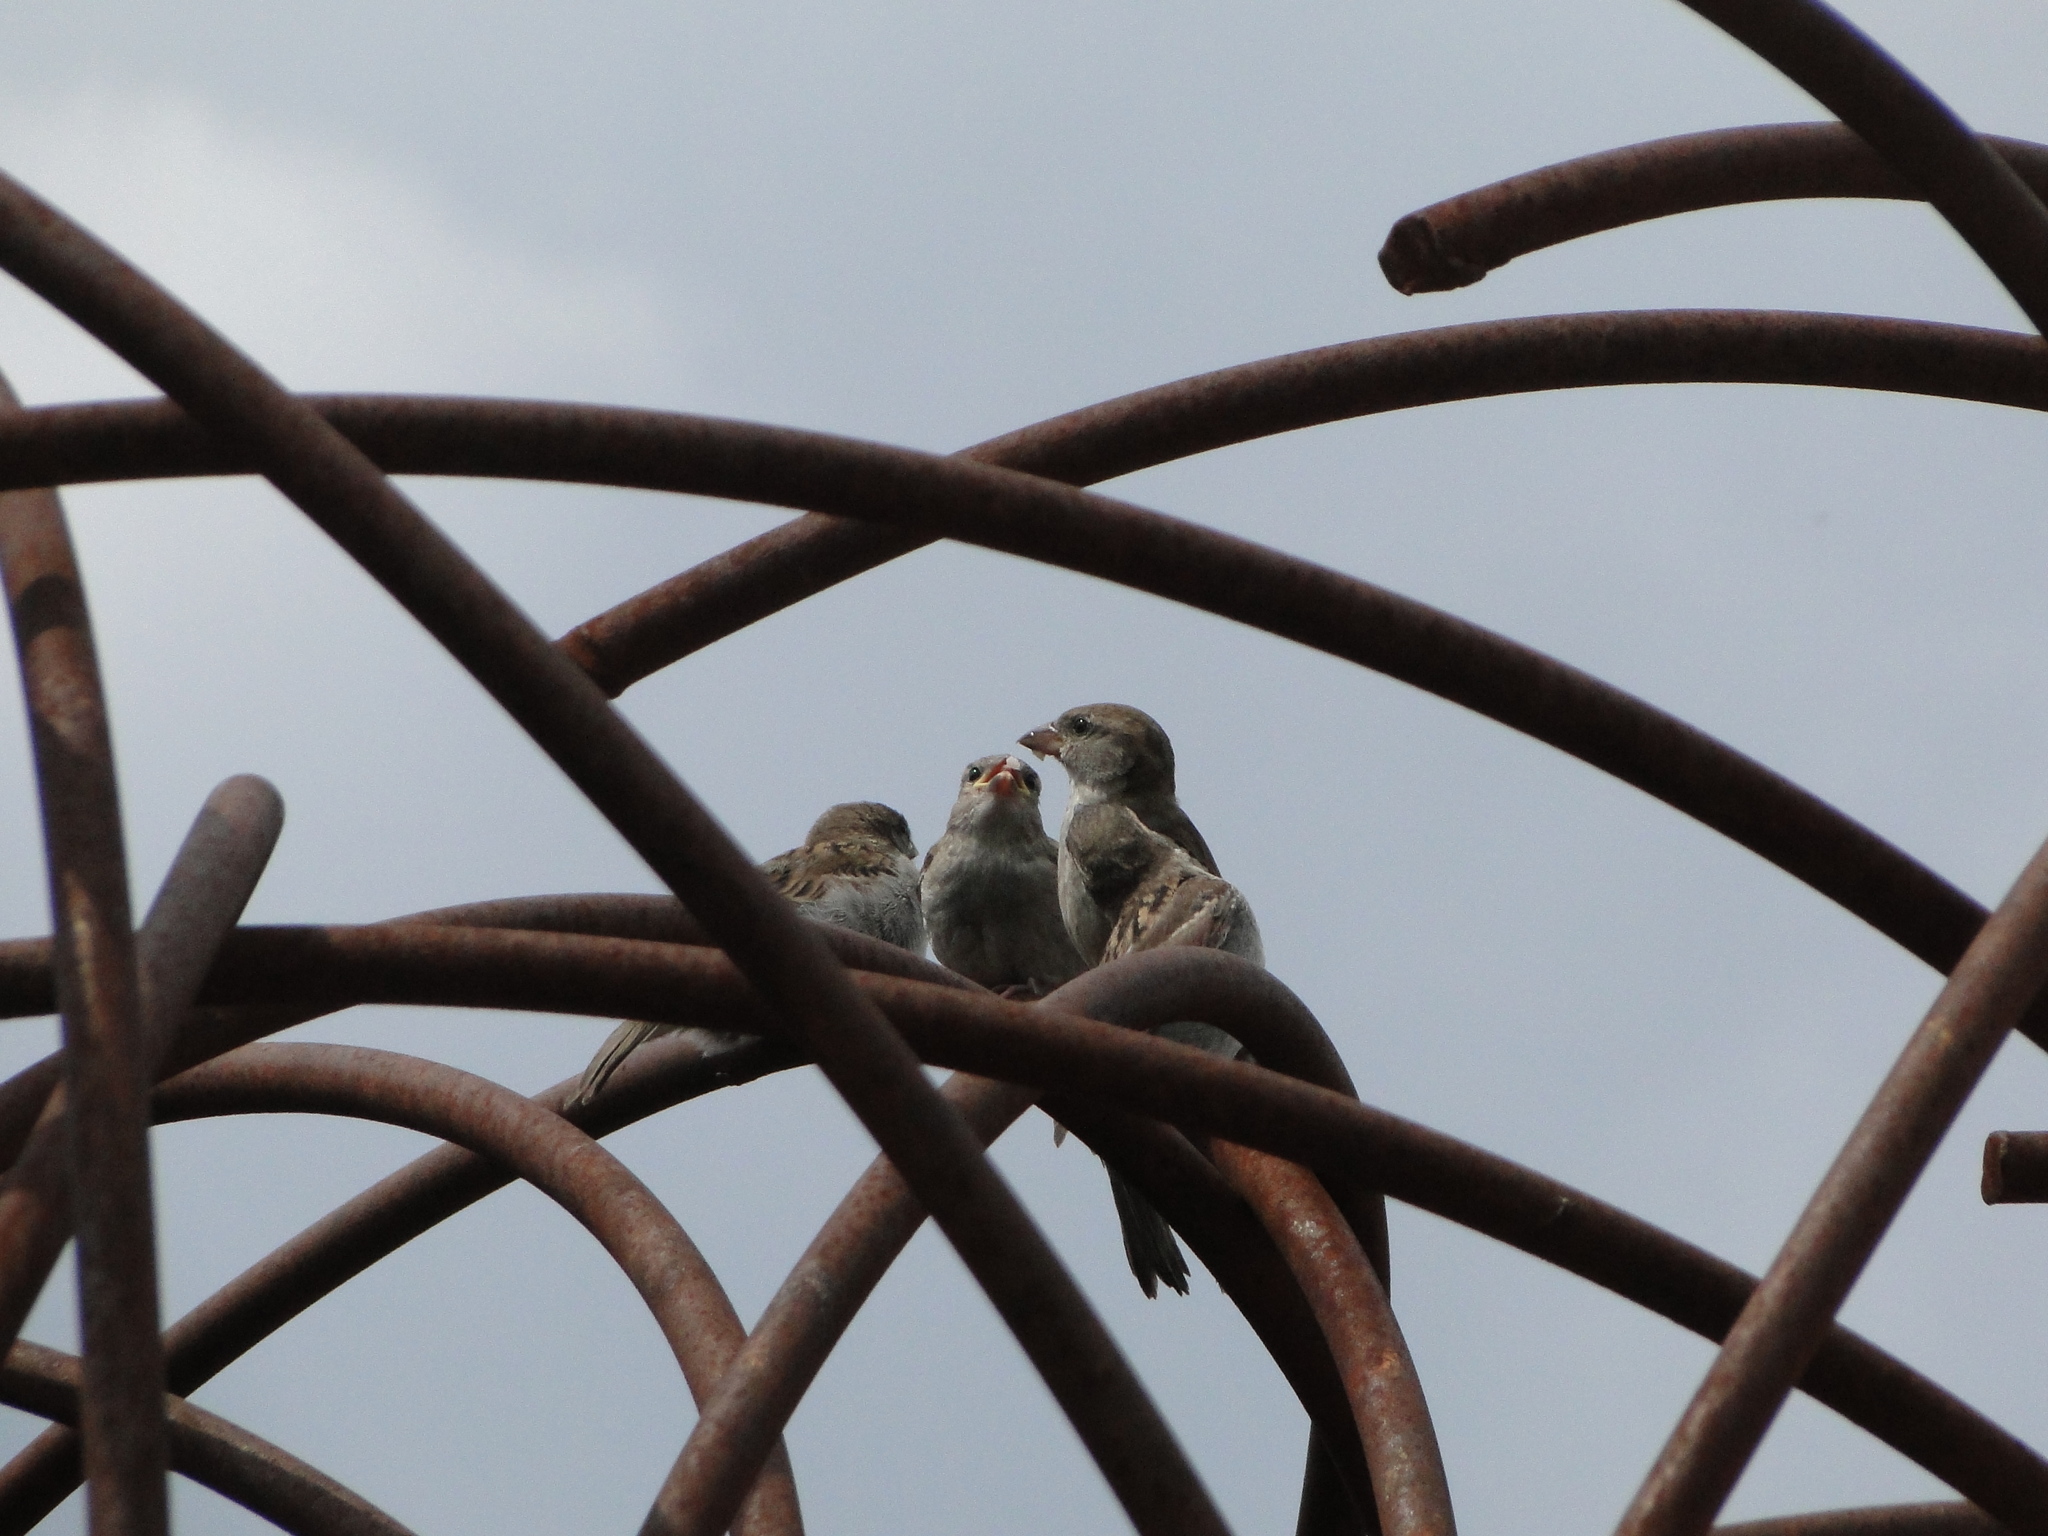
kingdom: Animalia
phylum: Chordata
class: Aves
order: Passeriformes
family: Passeridae
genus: Passer
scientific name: Passer domesticus
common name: House sparrow
